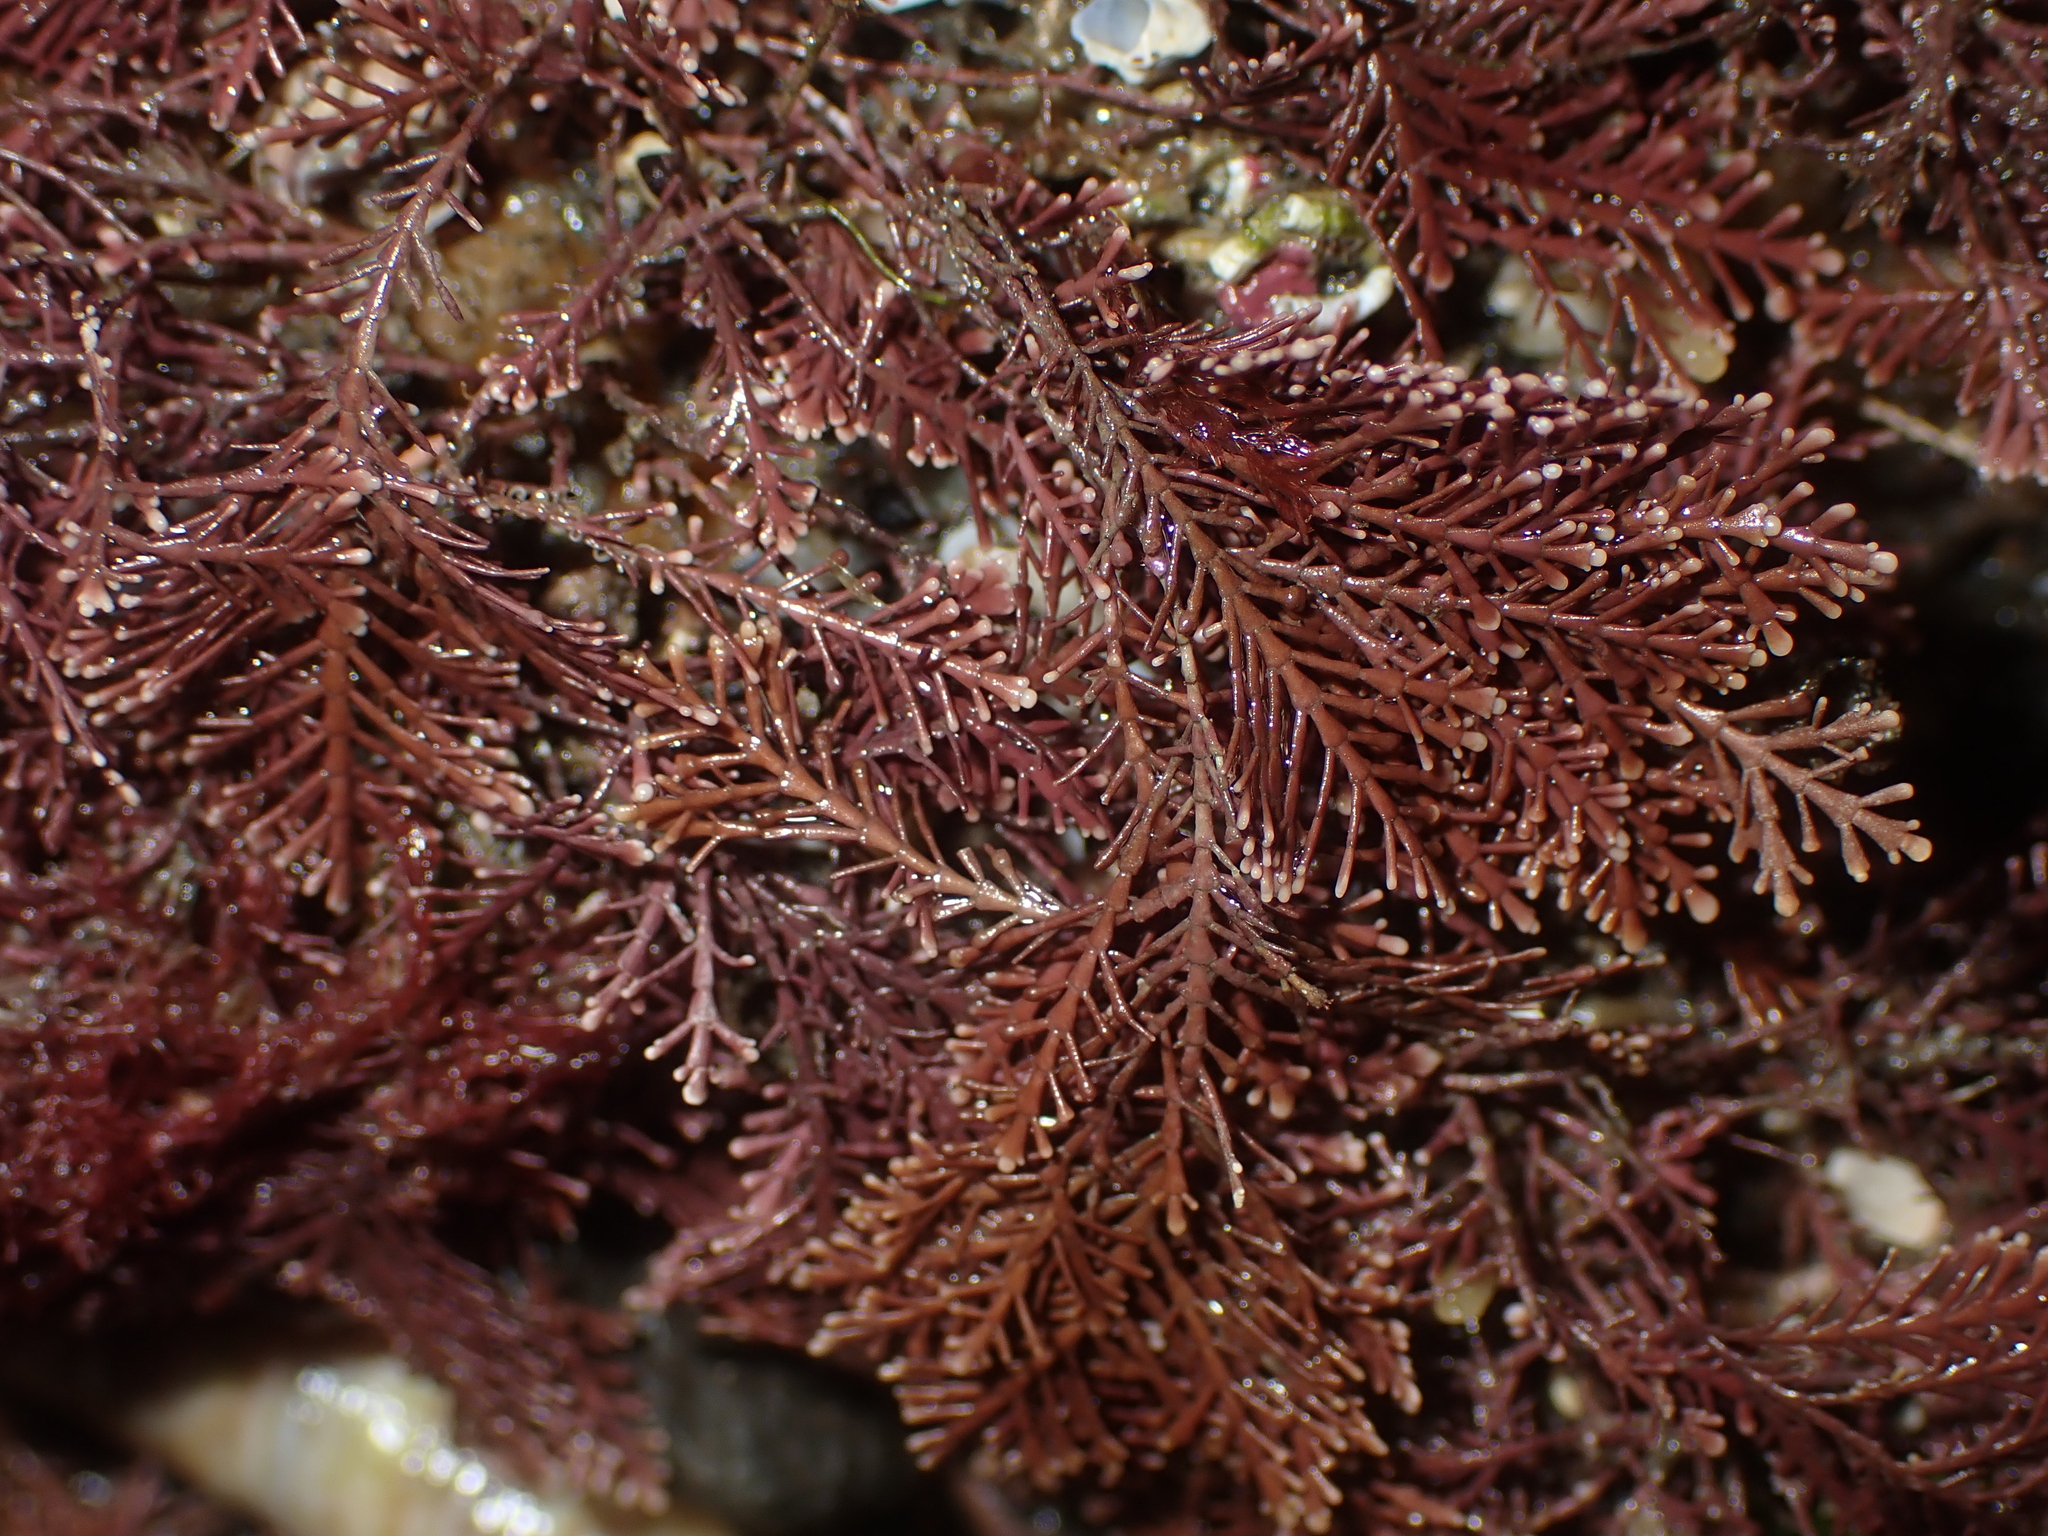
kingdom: Plantae
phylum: Rhodophyta
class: Florideophyceae
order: Corallinales
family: Corallinaceae
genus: Corallina
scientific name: Corallina officinalis
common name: Coral weed
